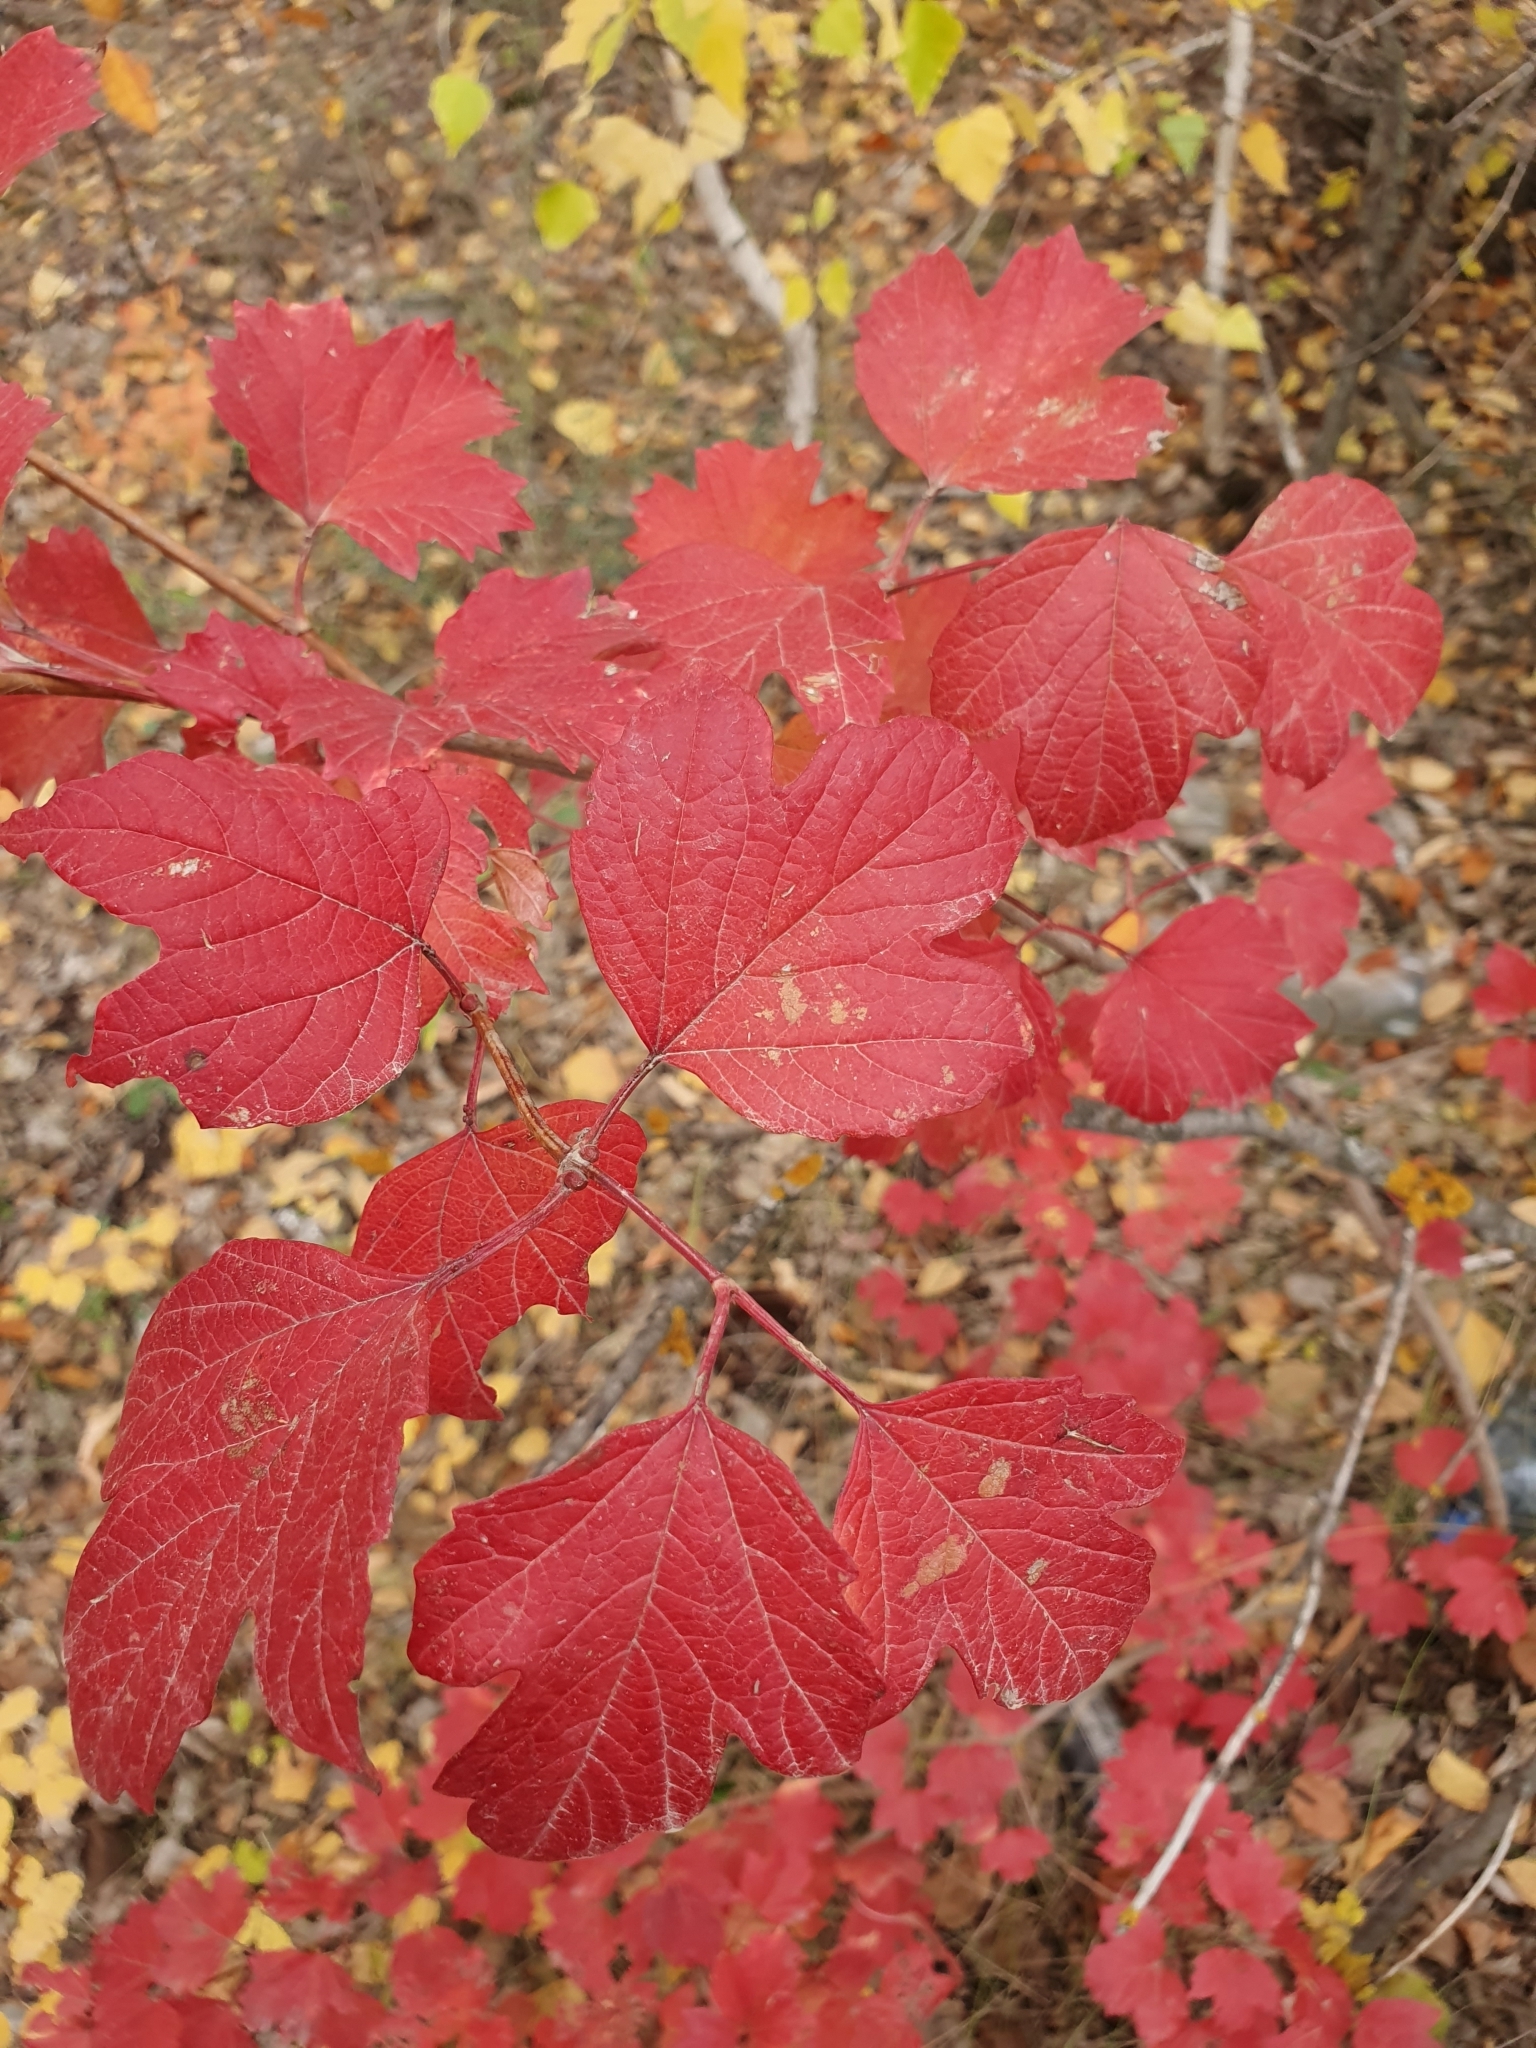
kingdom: Plantae
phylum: Tracheophyta
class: Magnoliopsida
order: Dipsacales
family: Viburnaceae
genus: Viburnum
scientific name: Viburnum opulus
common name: Guelder-rose
